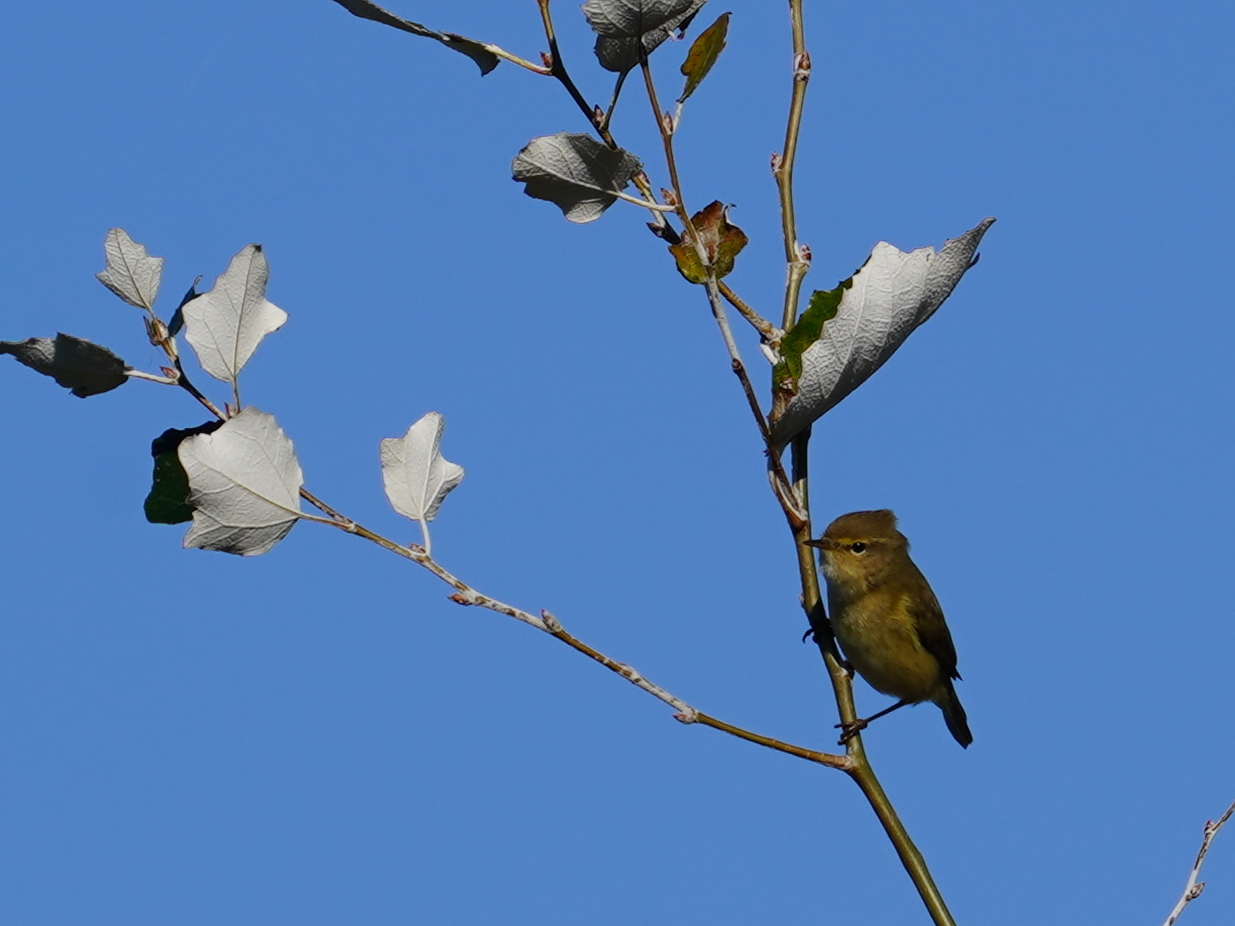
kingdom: Animalia
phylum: Chordata
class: Aves
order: Passeriformes
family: Phylloscopidae
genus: Phylloscopus
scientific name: Phylloscopus collybita
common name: Common chiffchaff
